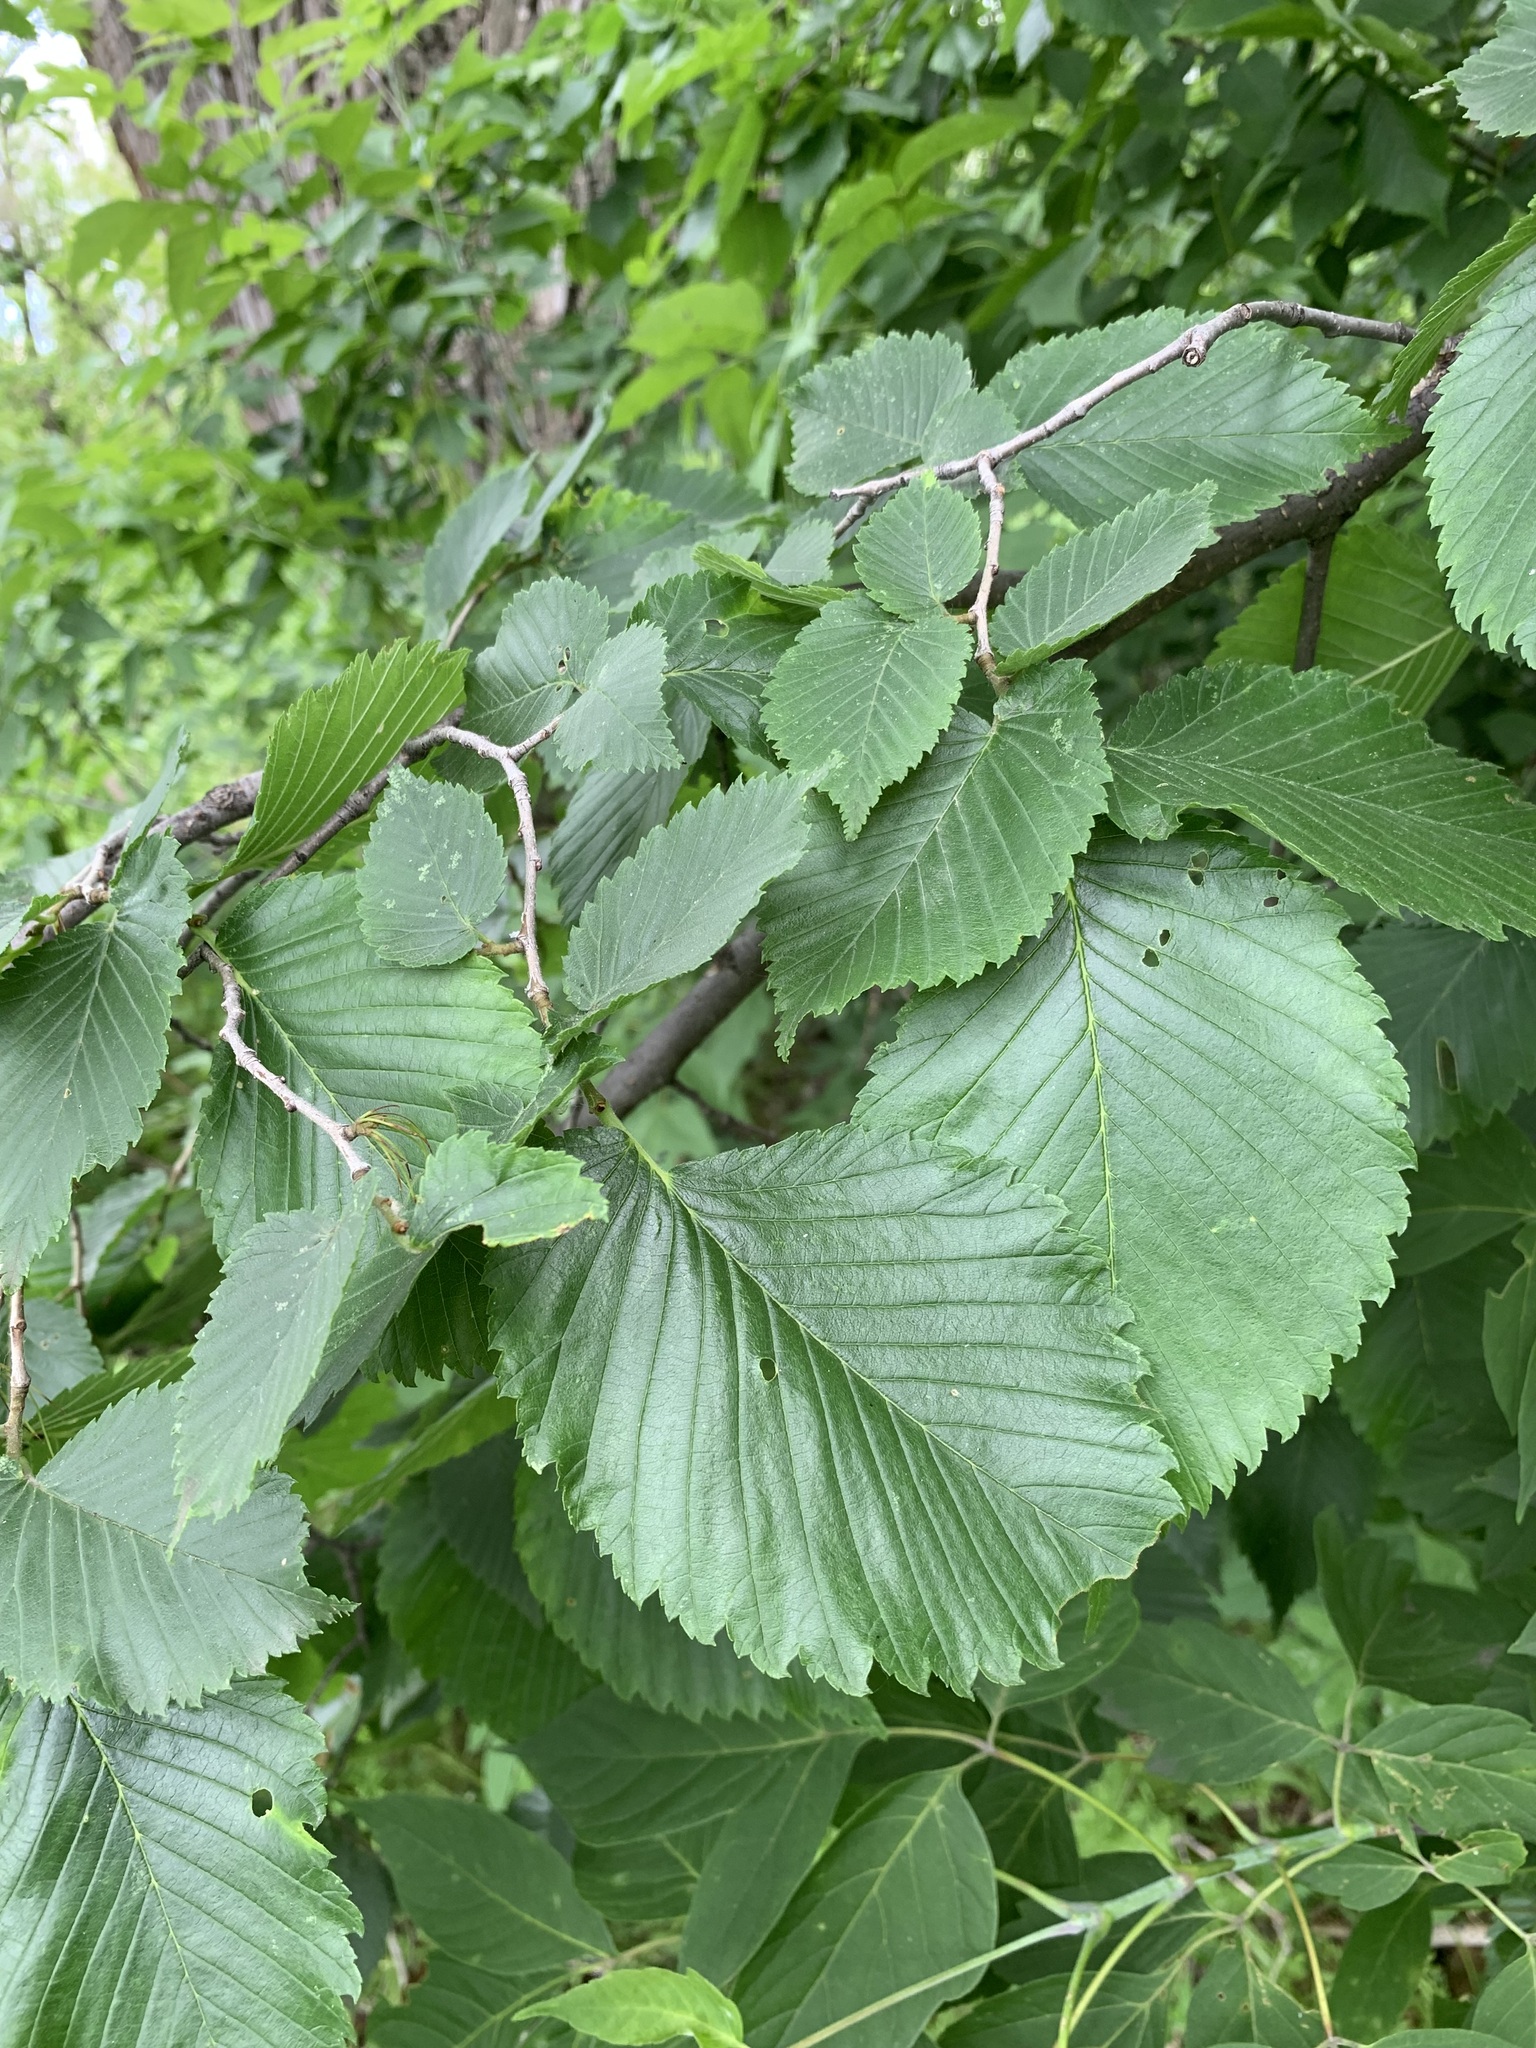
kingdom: Plantae
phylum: Tracheophyta
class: Magnoliopsida
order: Rosales
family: Ulmaceae
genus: Ulmus
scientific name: Ulmus laevis
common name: European white-elm
